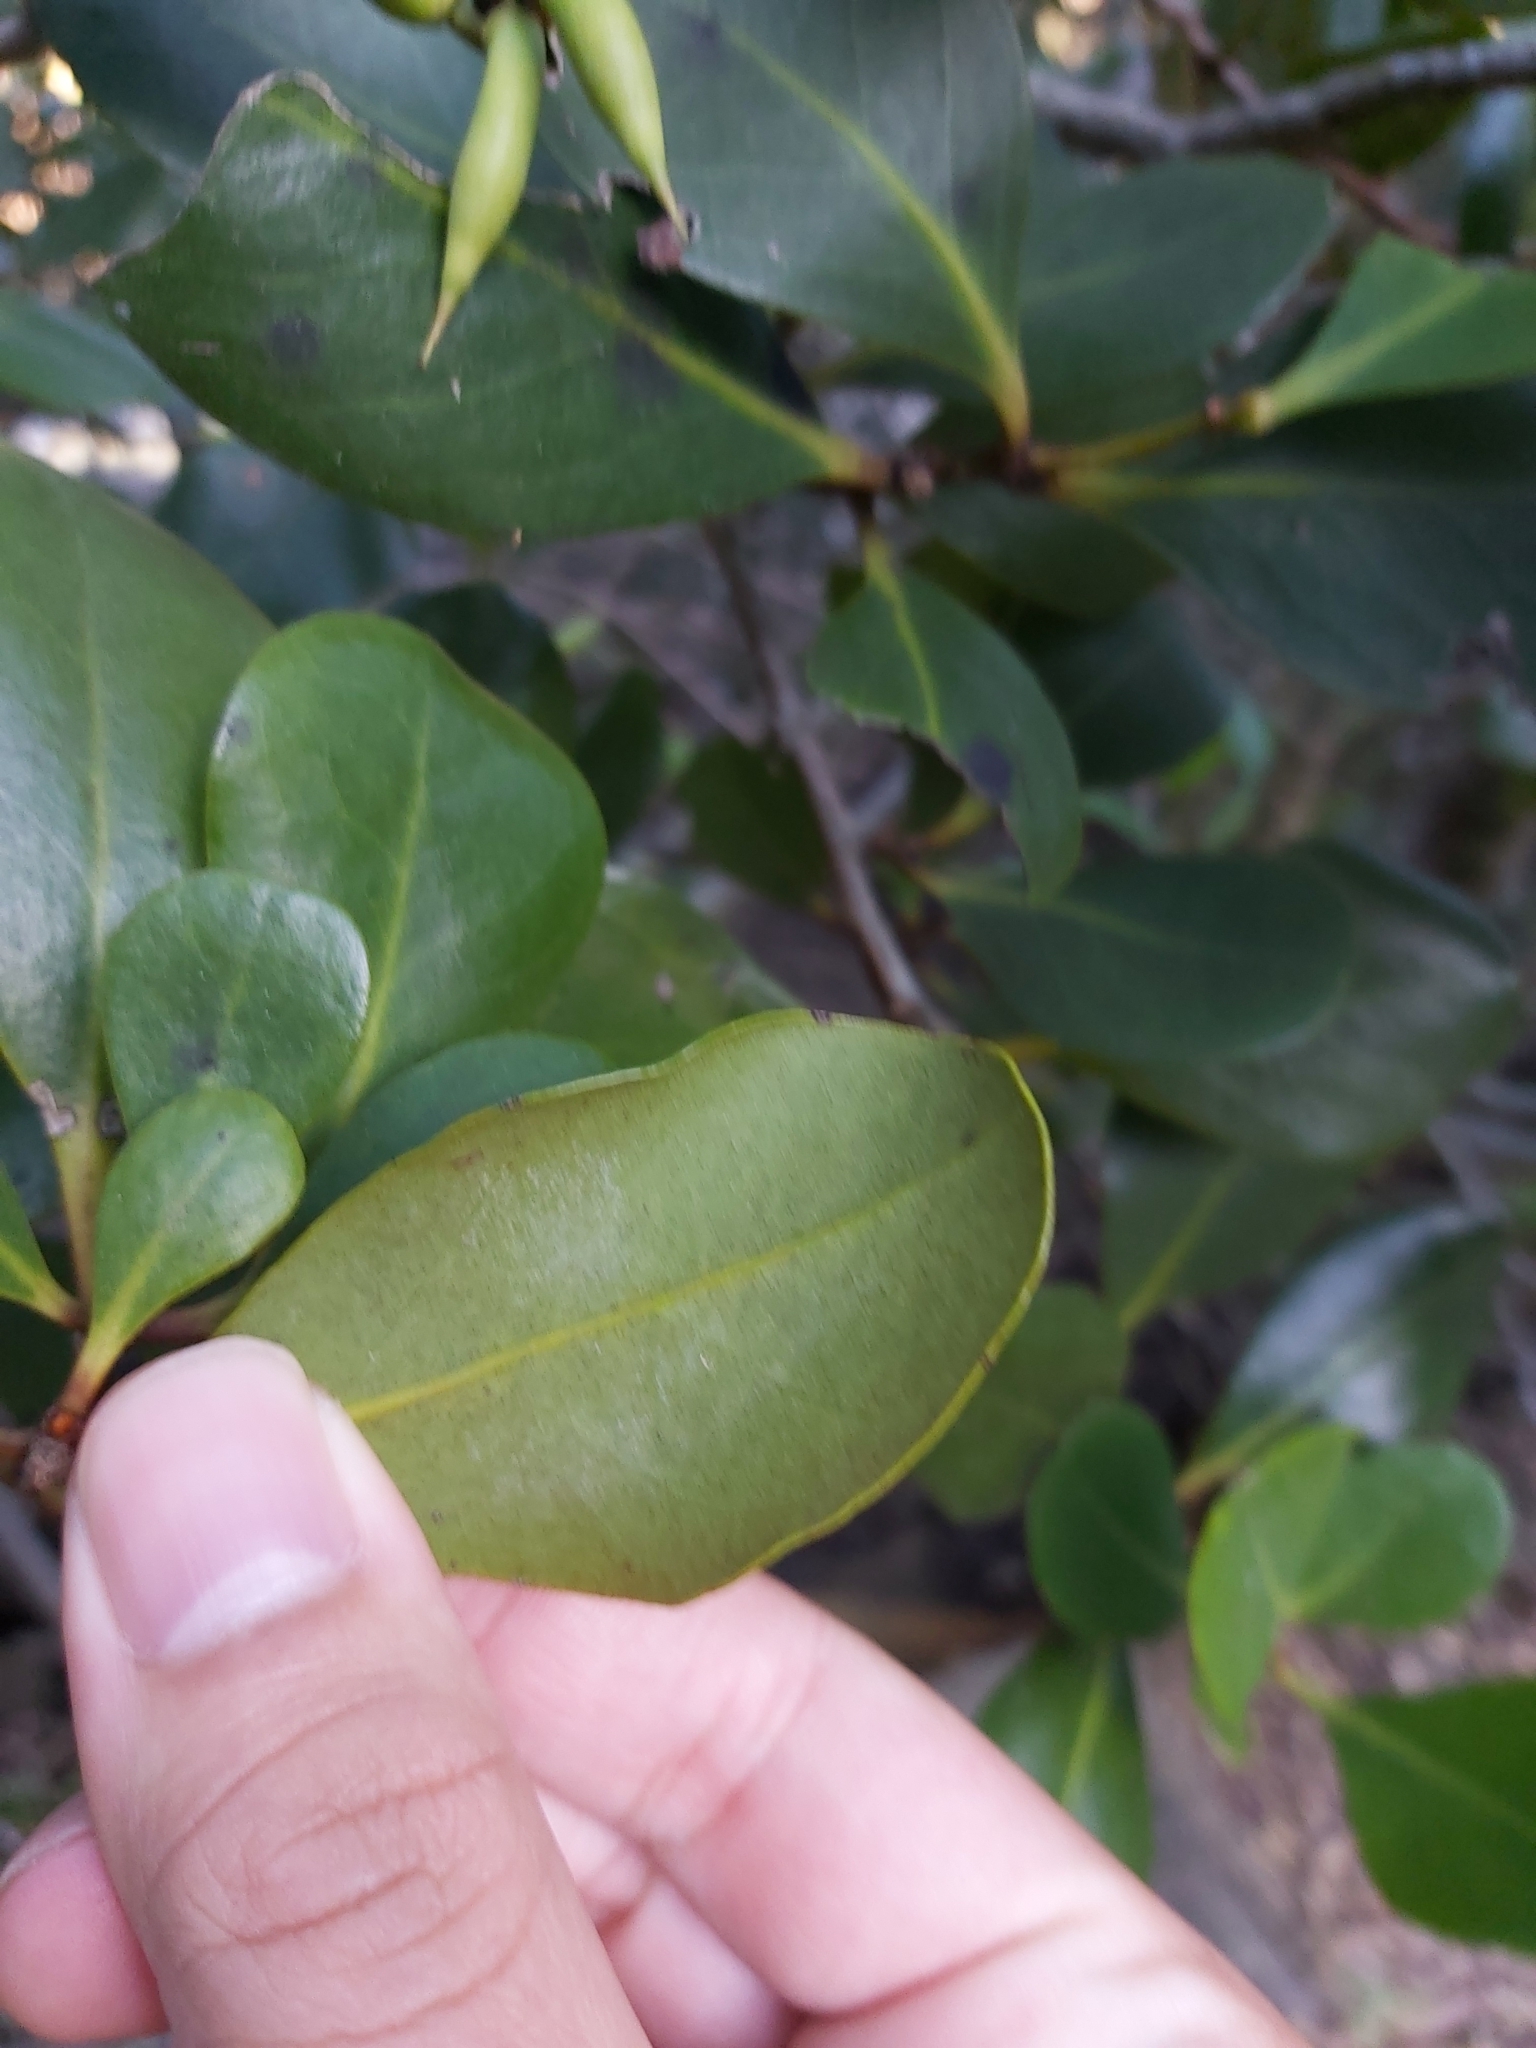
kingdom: Plantae
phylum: Tracheophyta
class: Magnoliopsida
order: Ericales
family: Primulaceae
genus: Aegiceras
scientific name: Aegiceras corniculatum
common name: River mangrove
